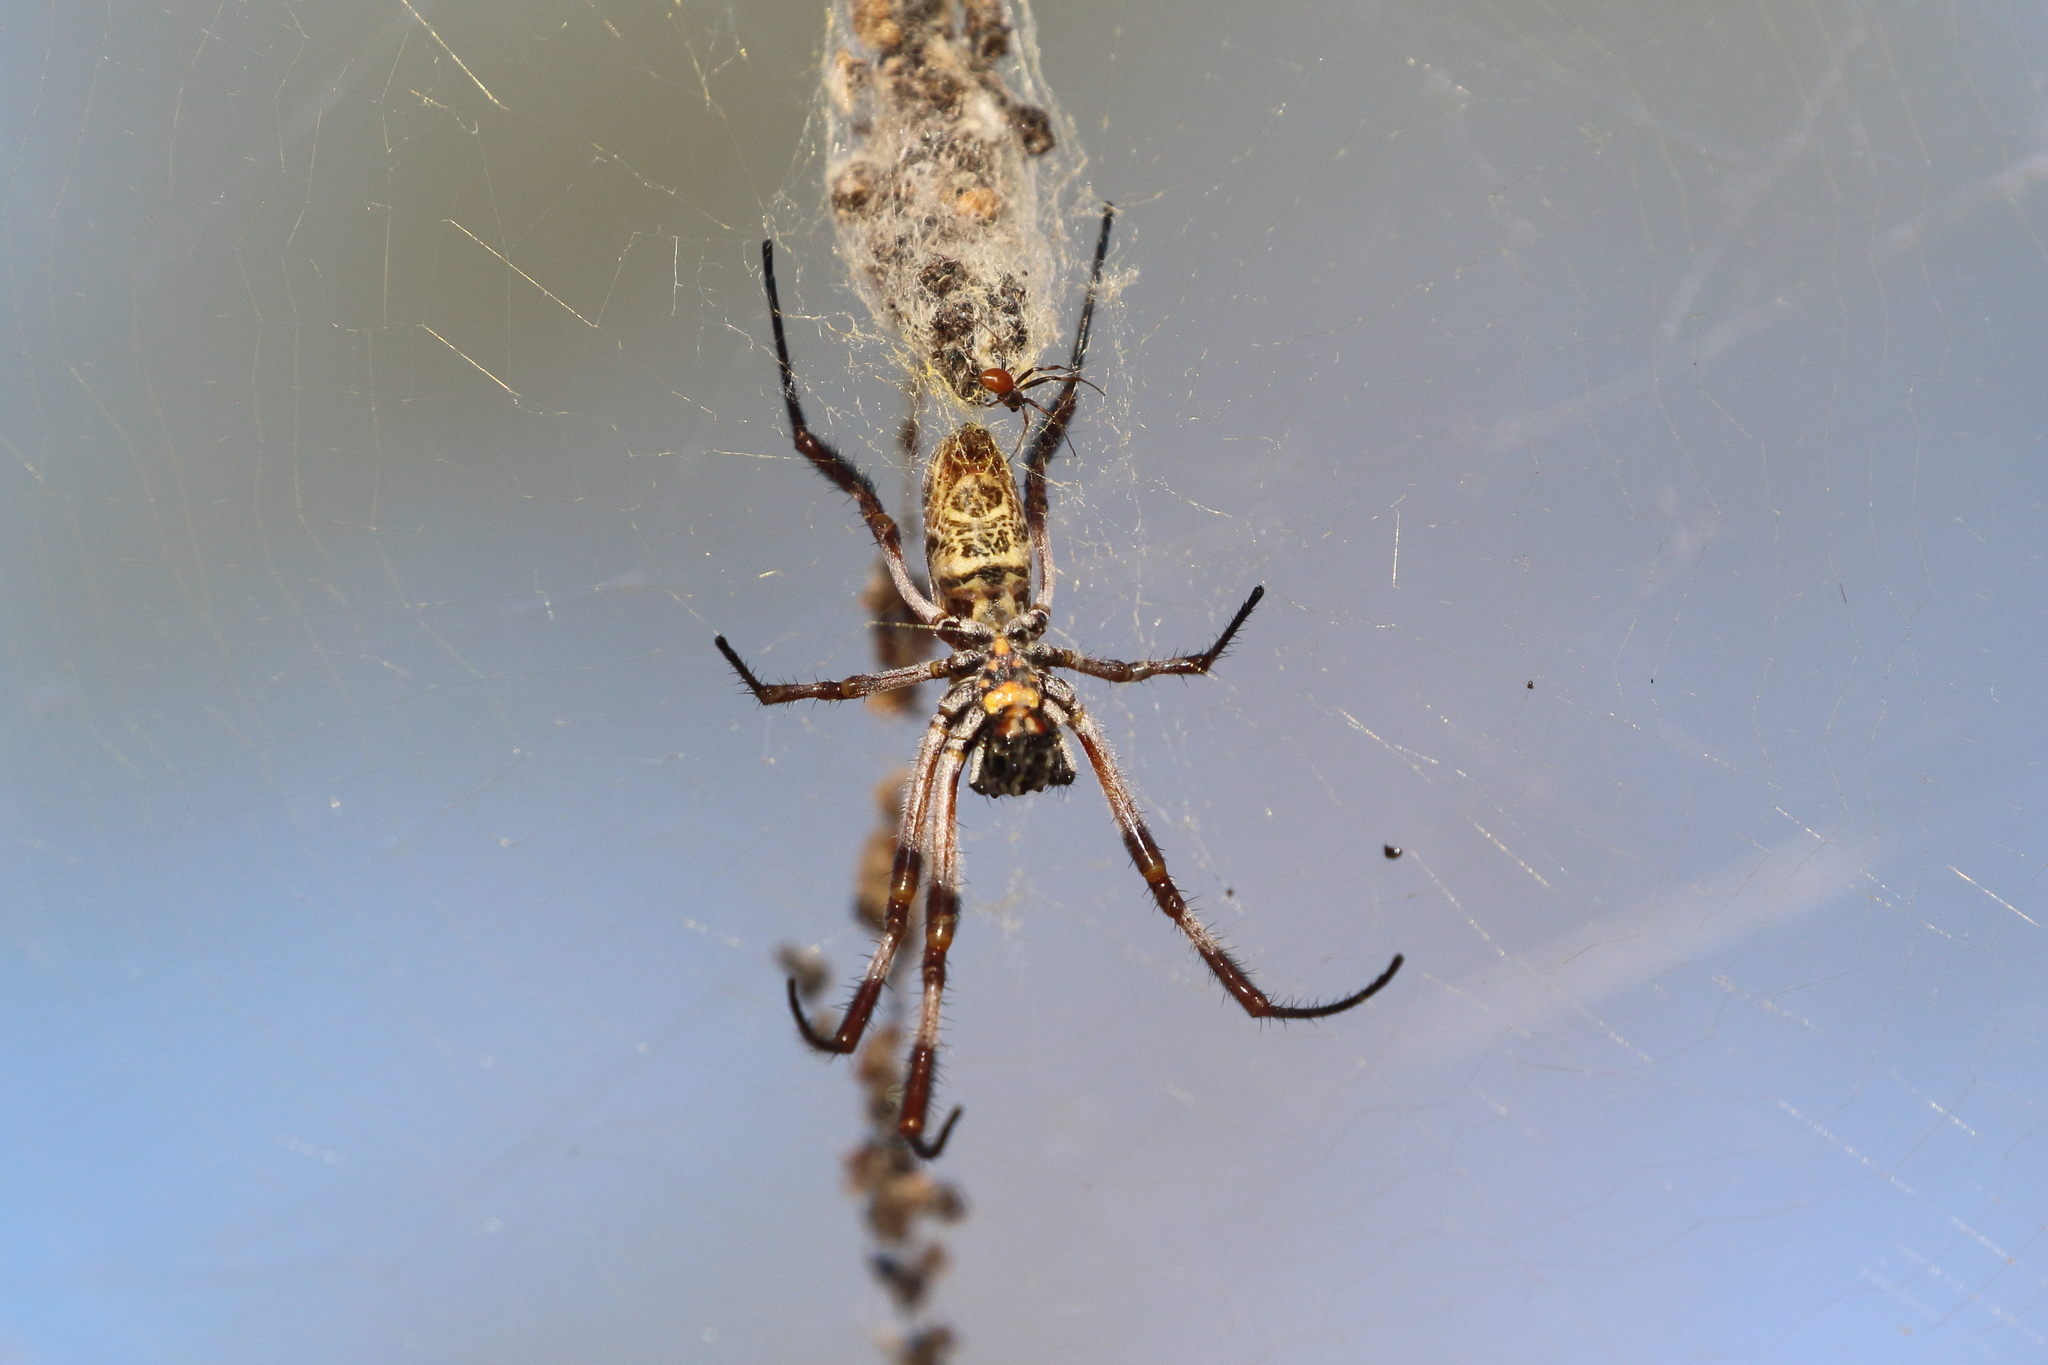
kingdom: Animalia
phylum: Arthropoda
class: Arachnida
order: Araneae
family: Araneidae
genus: Trichonephila
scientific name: Trichonephila edulis
